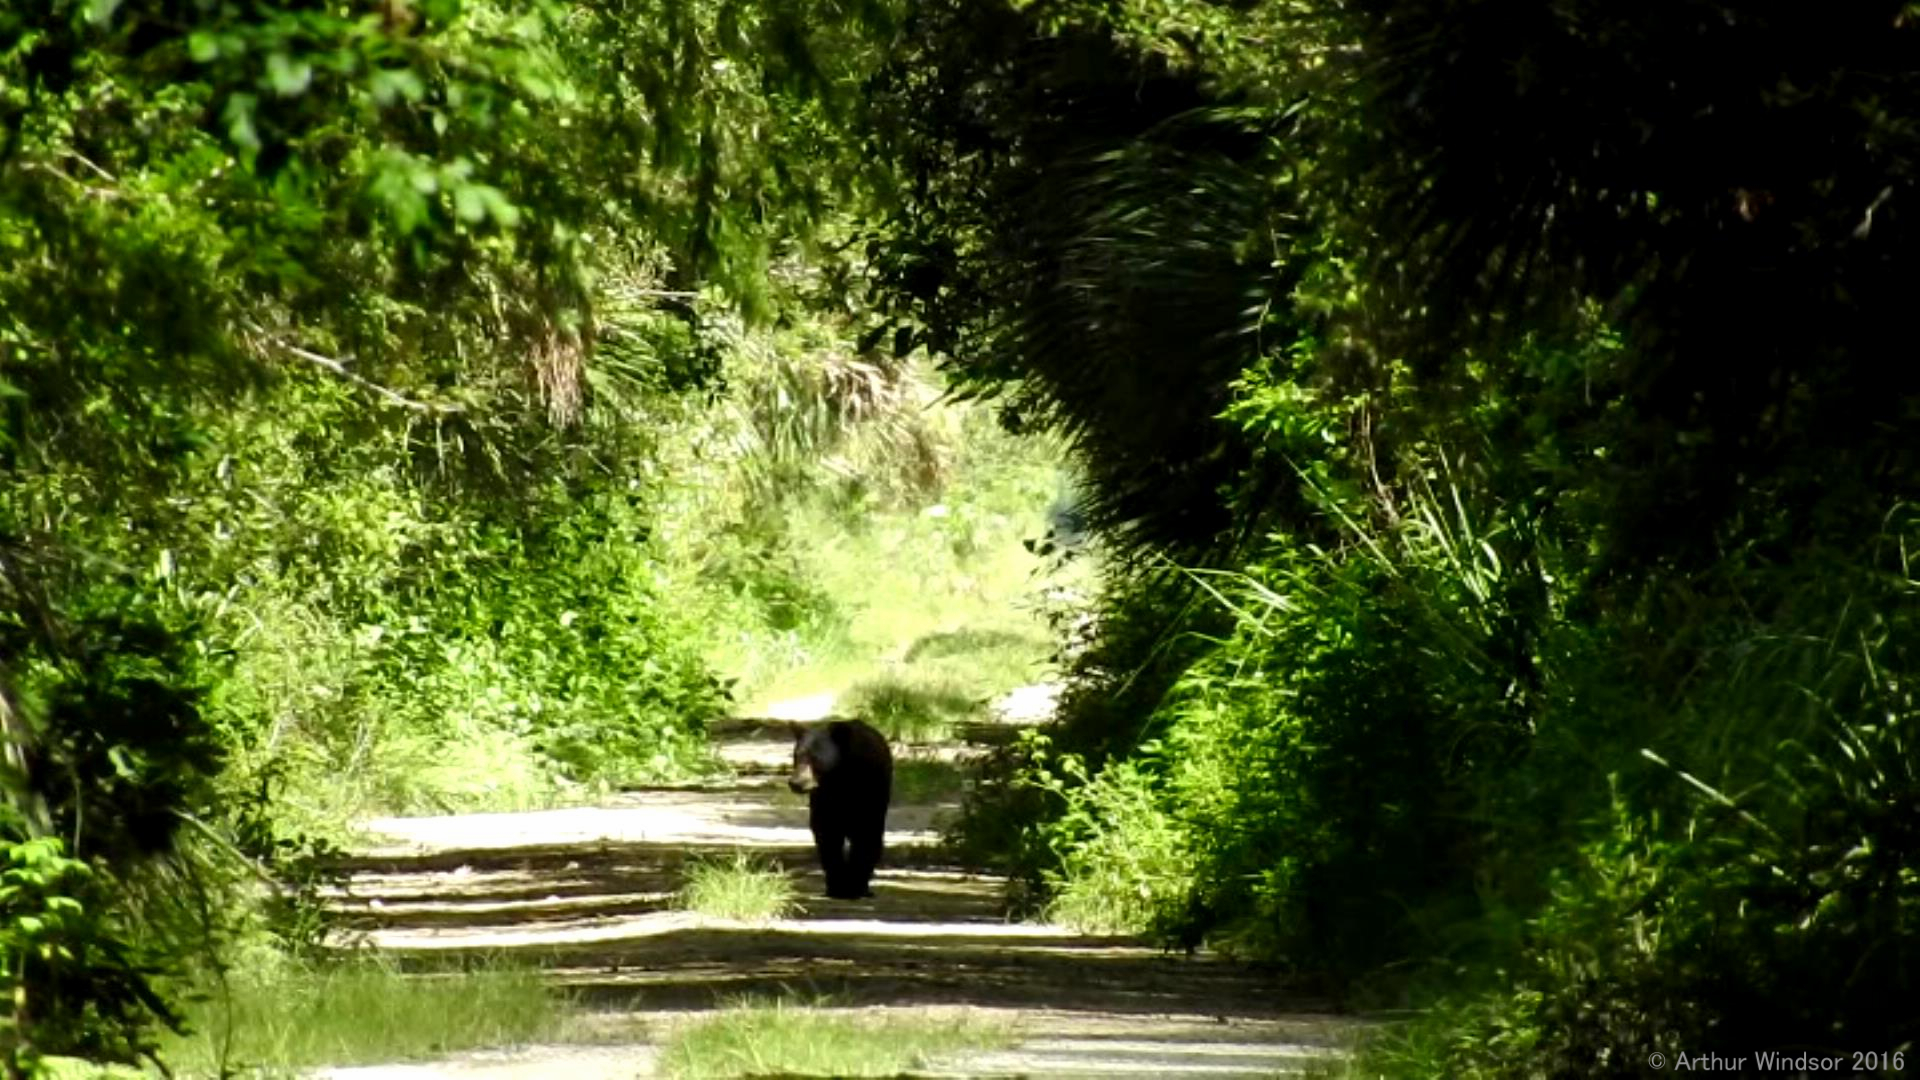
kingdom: Animalia
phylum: Chordata
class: Mammalia
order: Carnivora
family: Ursidae
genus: Ursus
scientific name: Ursus americanus
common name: American black bear
